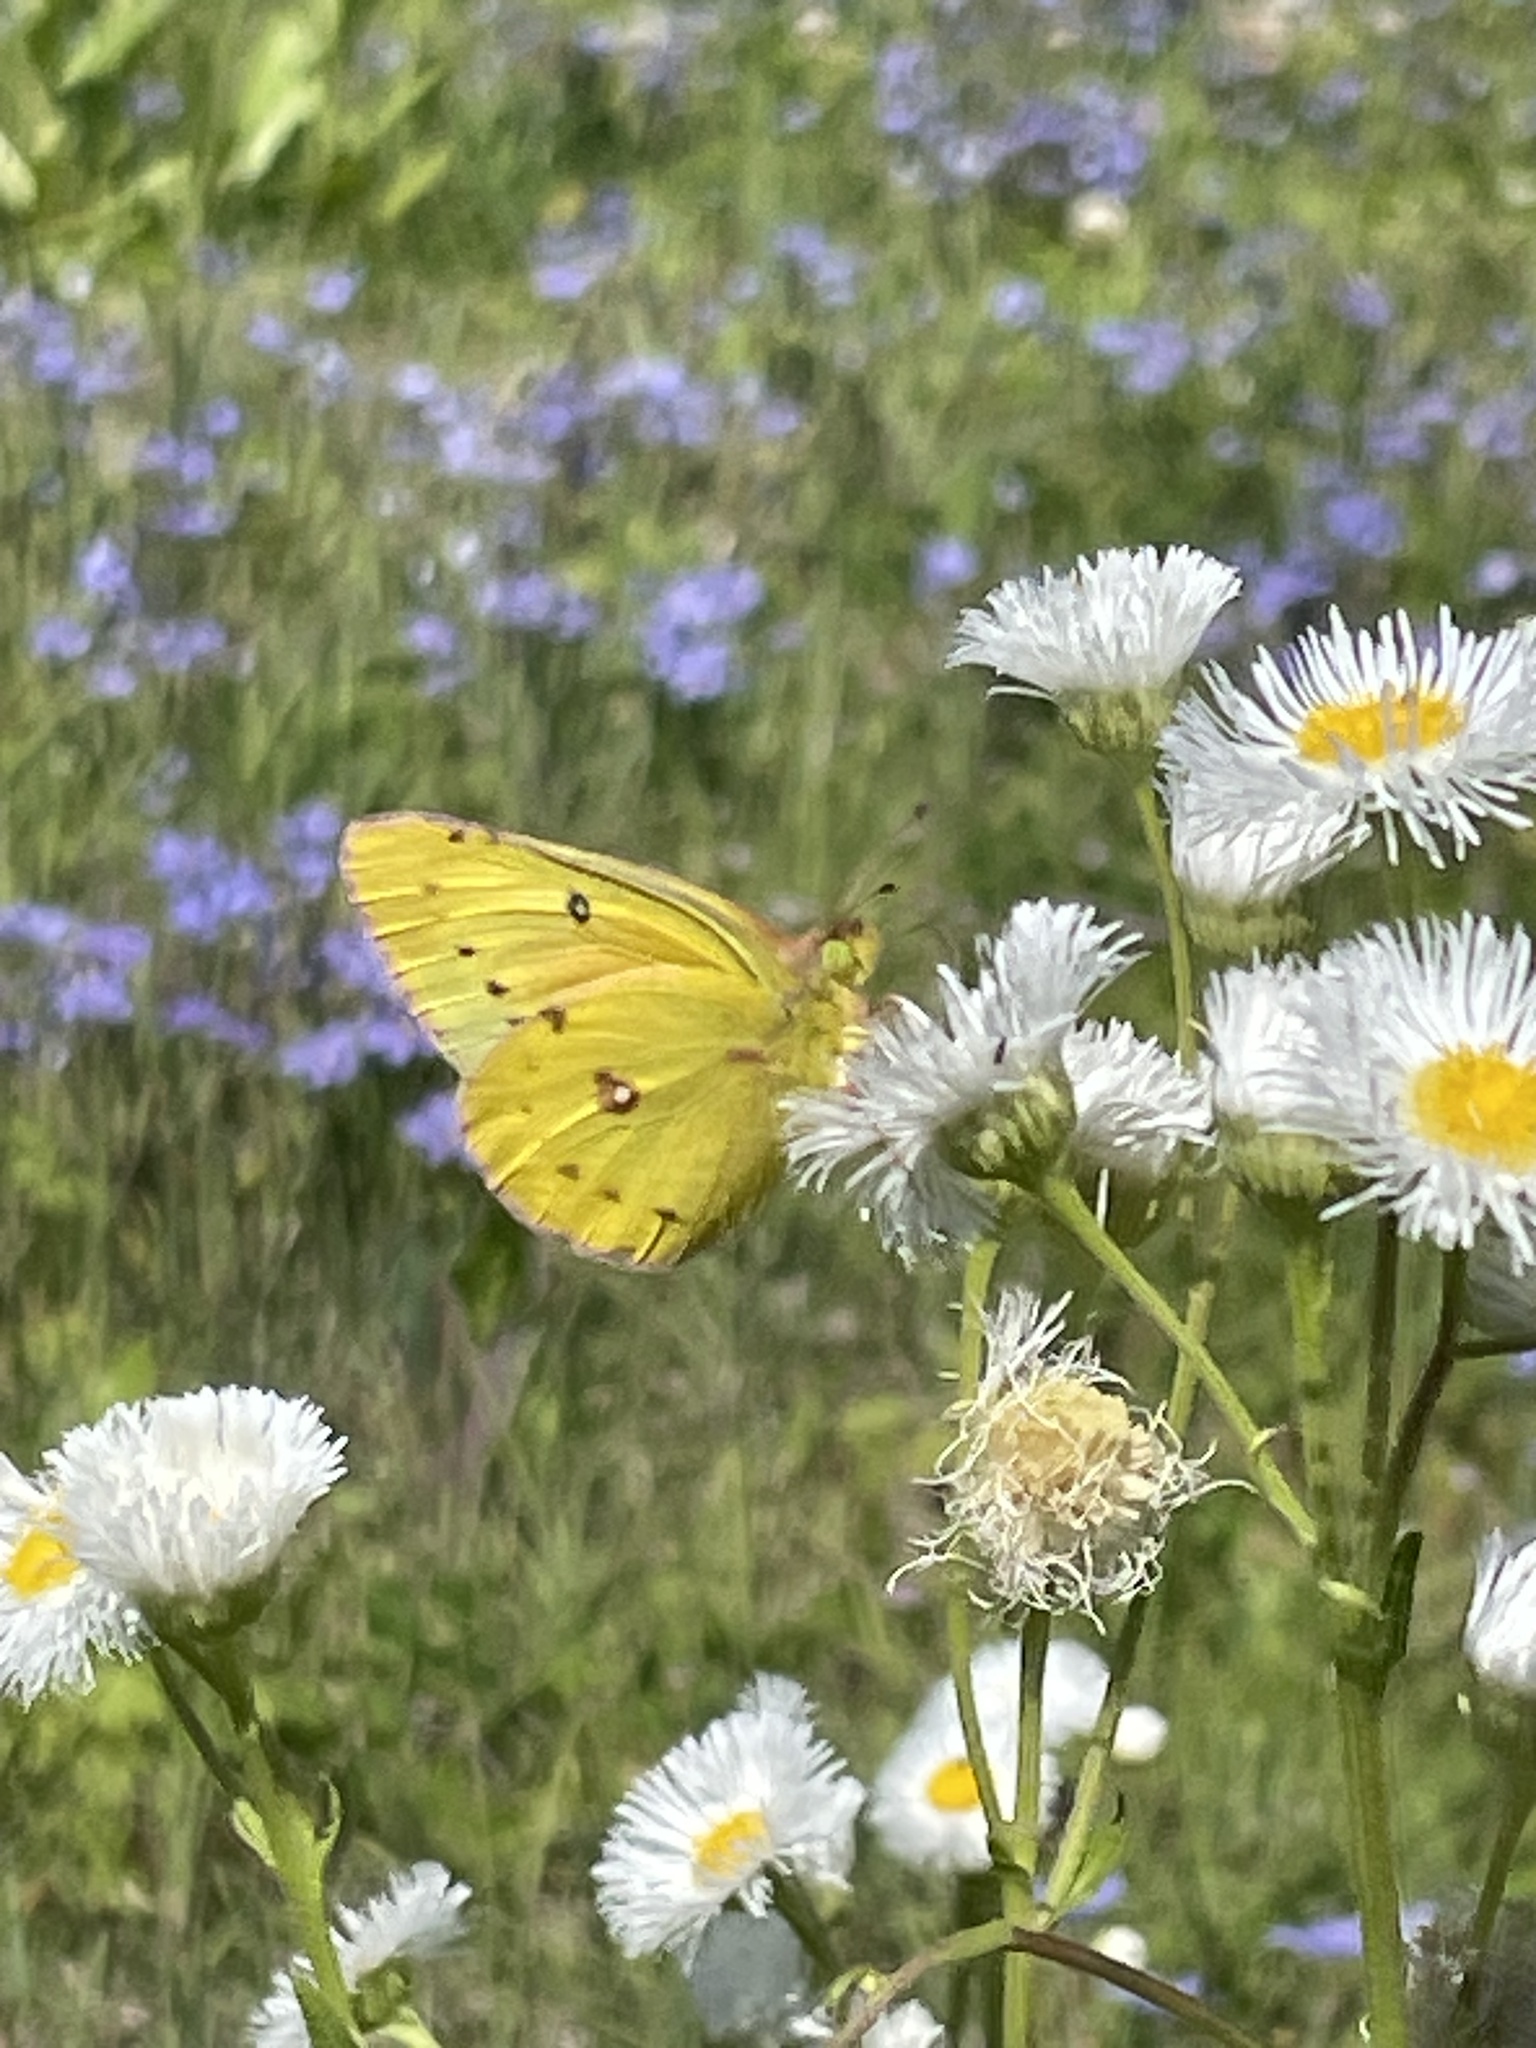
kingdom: Animalia
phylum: Arthropoda
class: Insecta
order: Lepidoptera
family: Pieridae
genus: Colias
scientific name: Colias eurytheme
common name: Alfalfa butterfly
